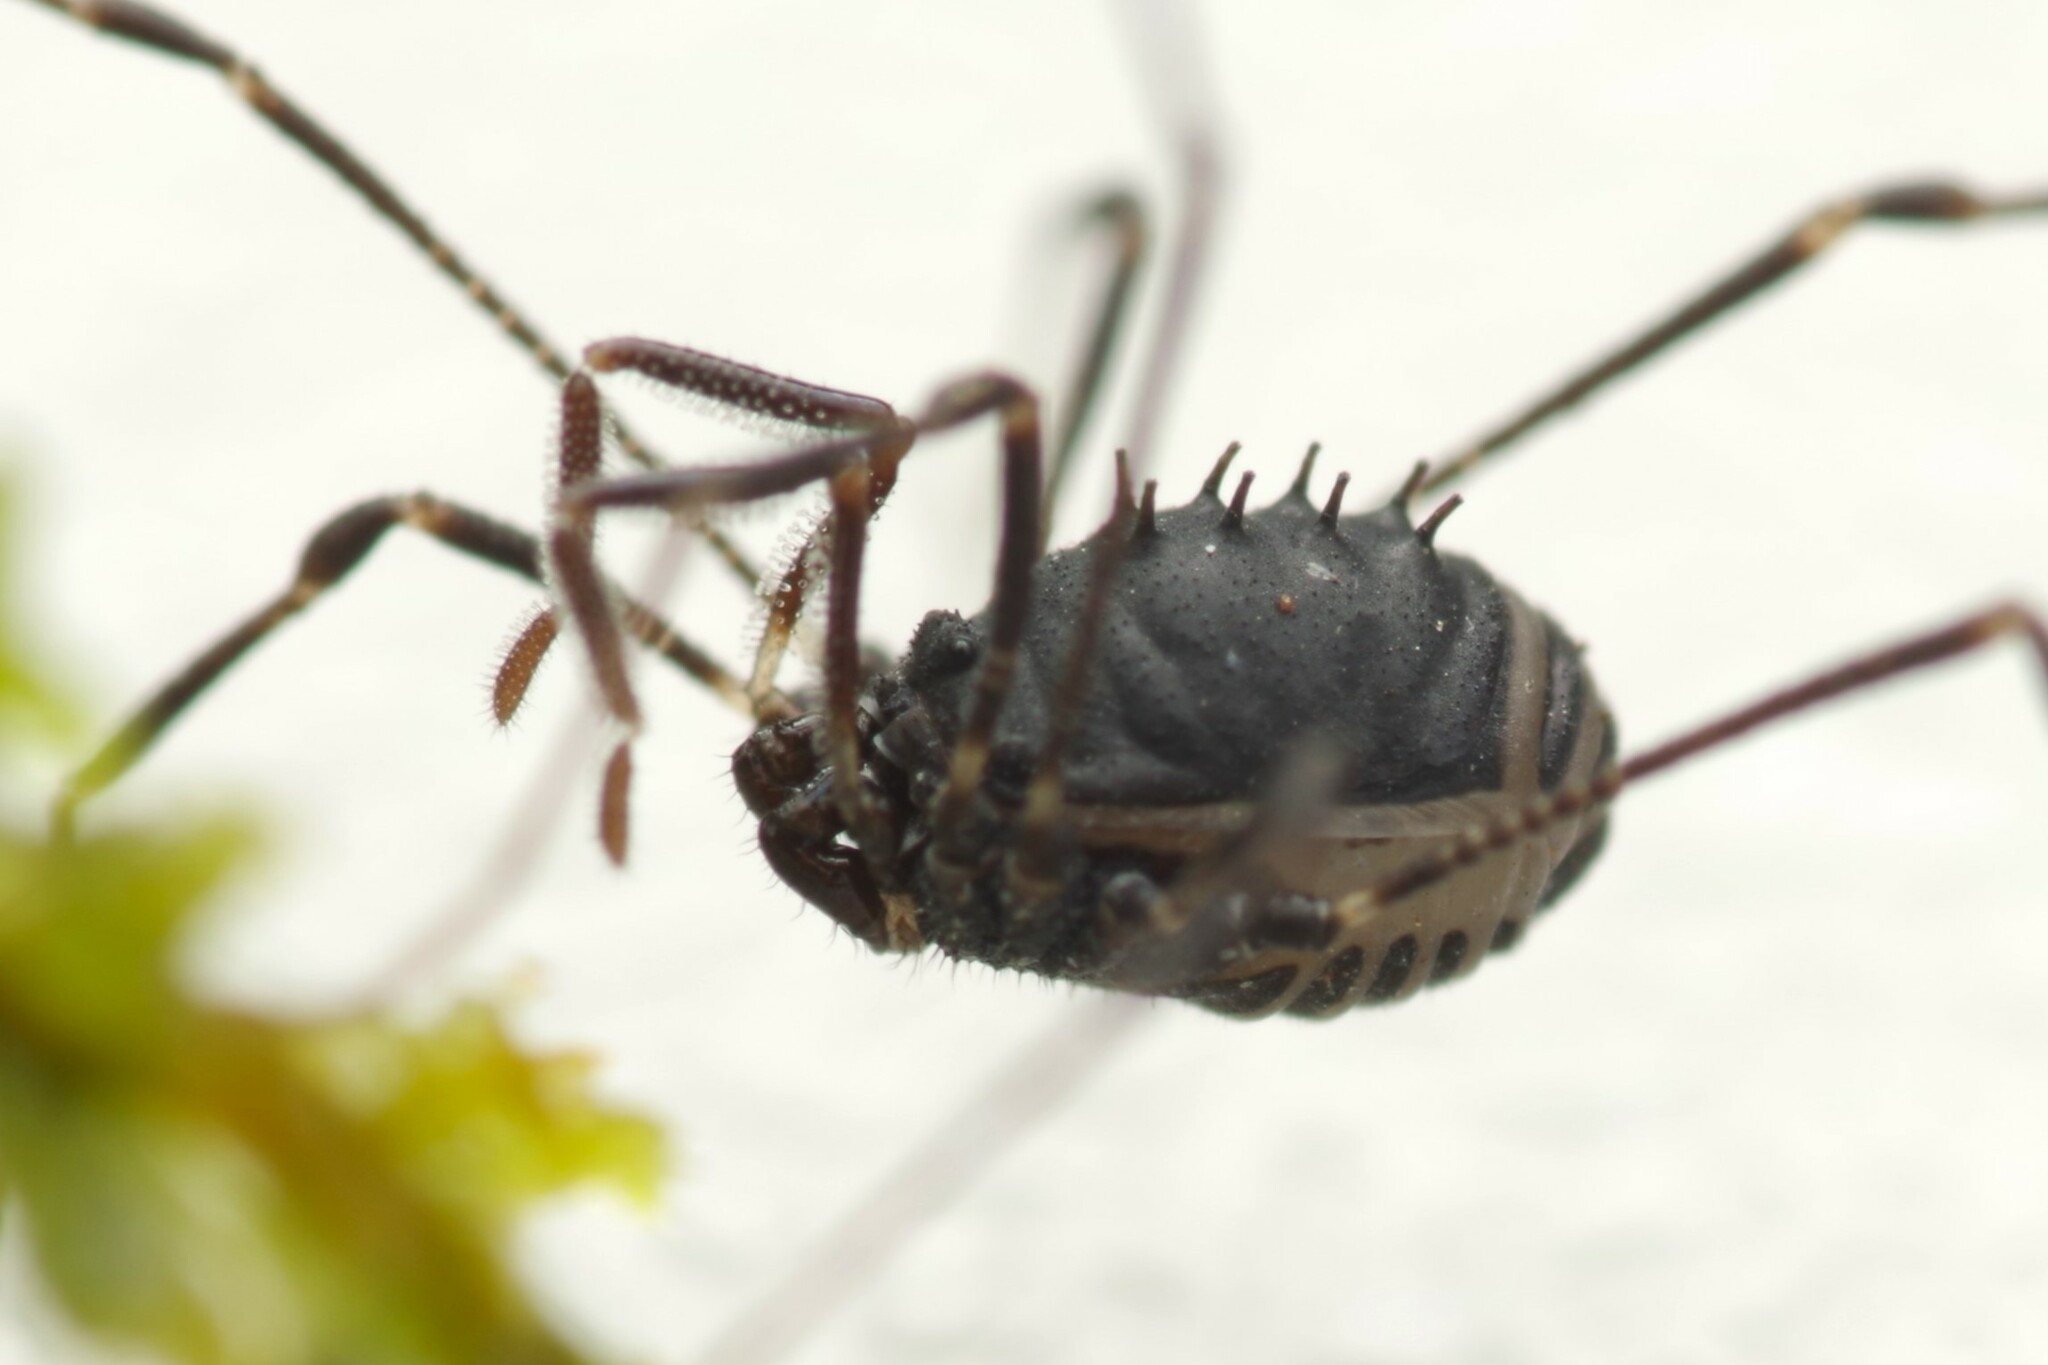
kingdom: Animalia
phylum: Arthropoda
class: Arachnida
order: Opiliones
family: Nemastomatidae
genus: Nemastomella
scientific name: Nemastomella dubia
